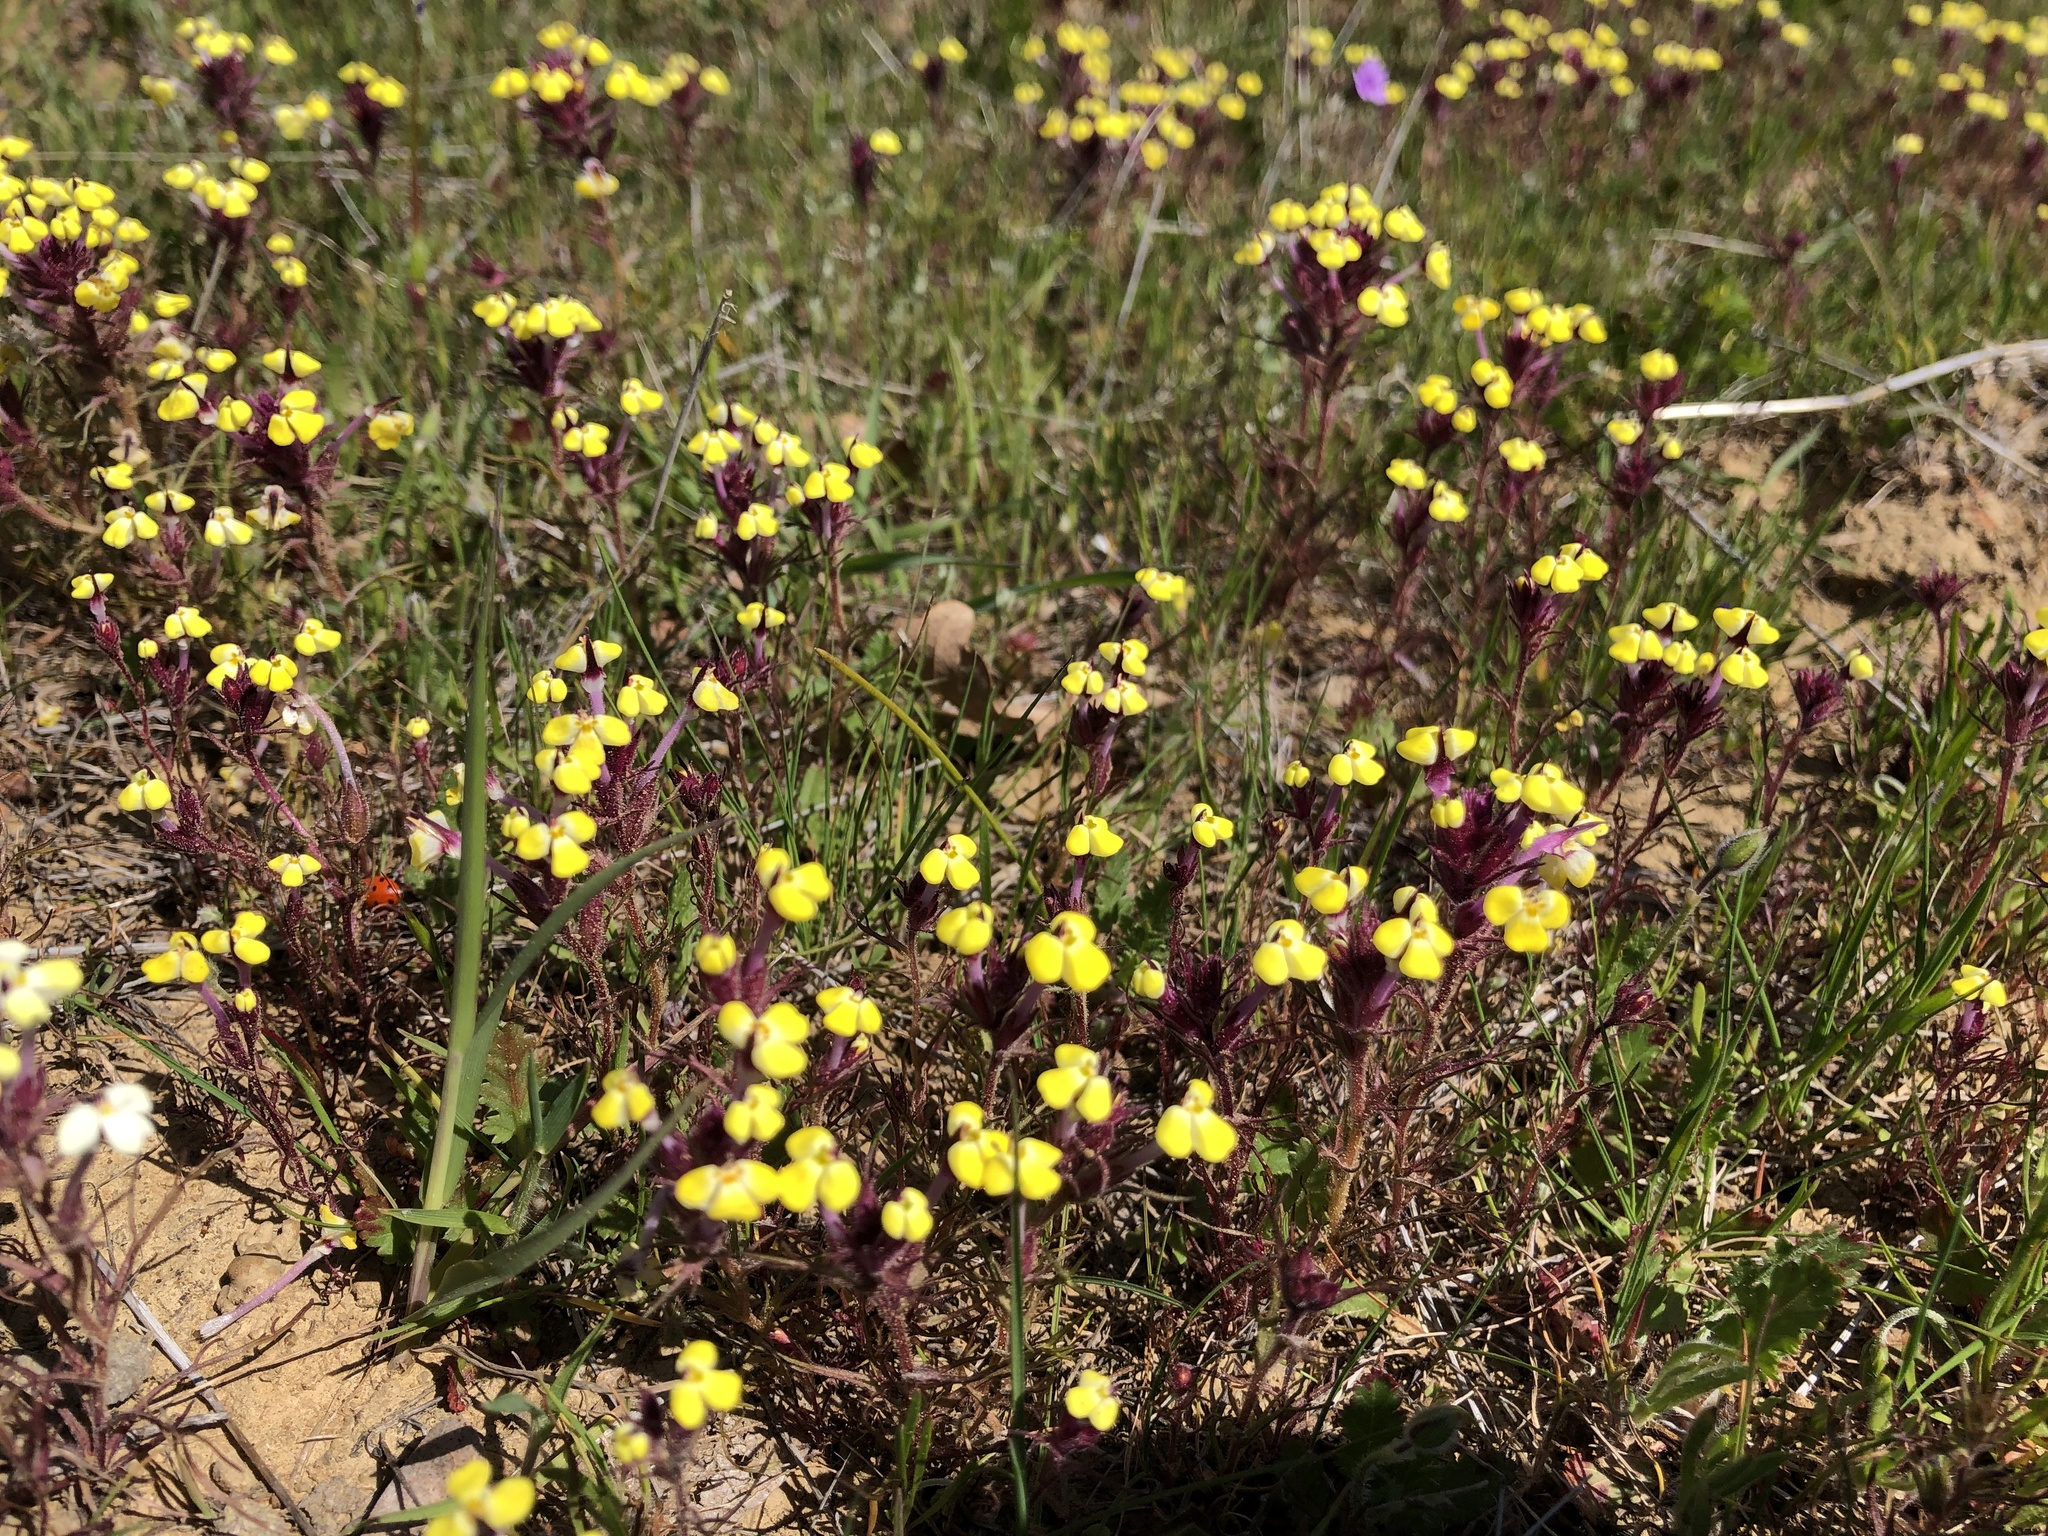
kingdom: Plantae
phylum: Tracheophyta
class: Magnoliopsida
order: Lamiales
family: Orobanchaceae
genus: Triphysaria
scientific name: Triphysaria eriantha
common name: Johnny-tuck
